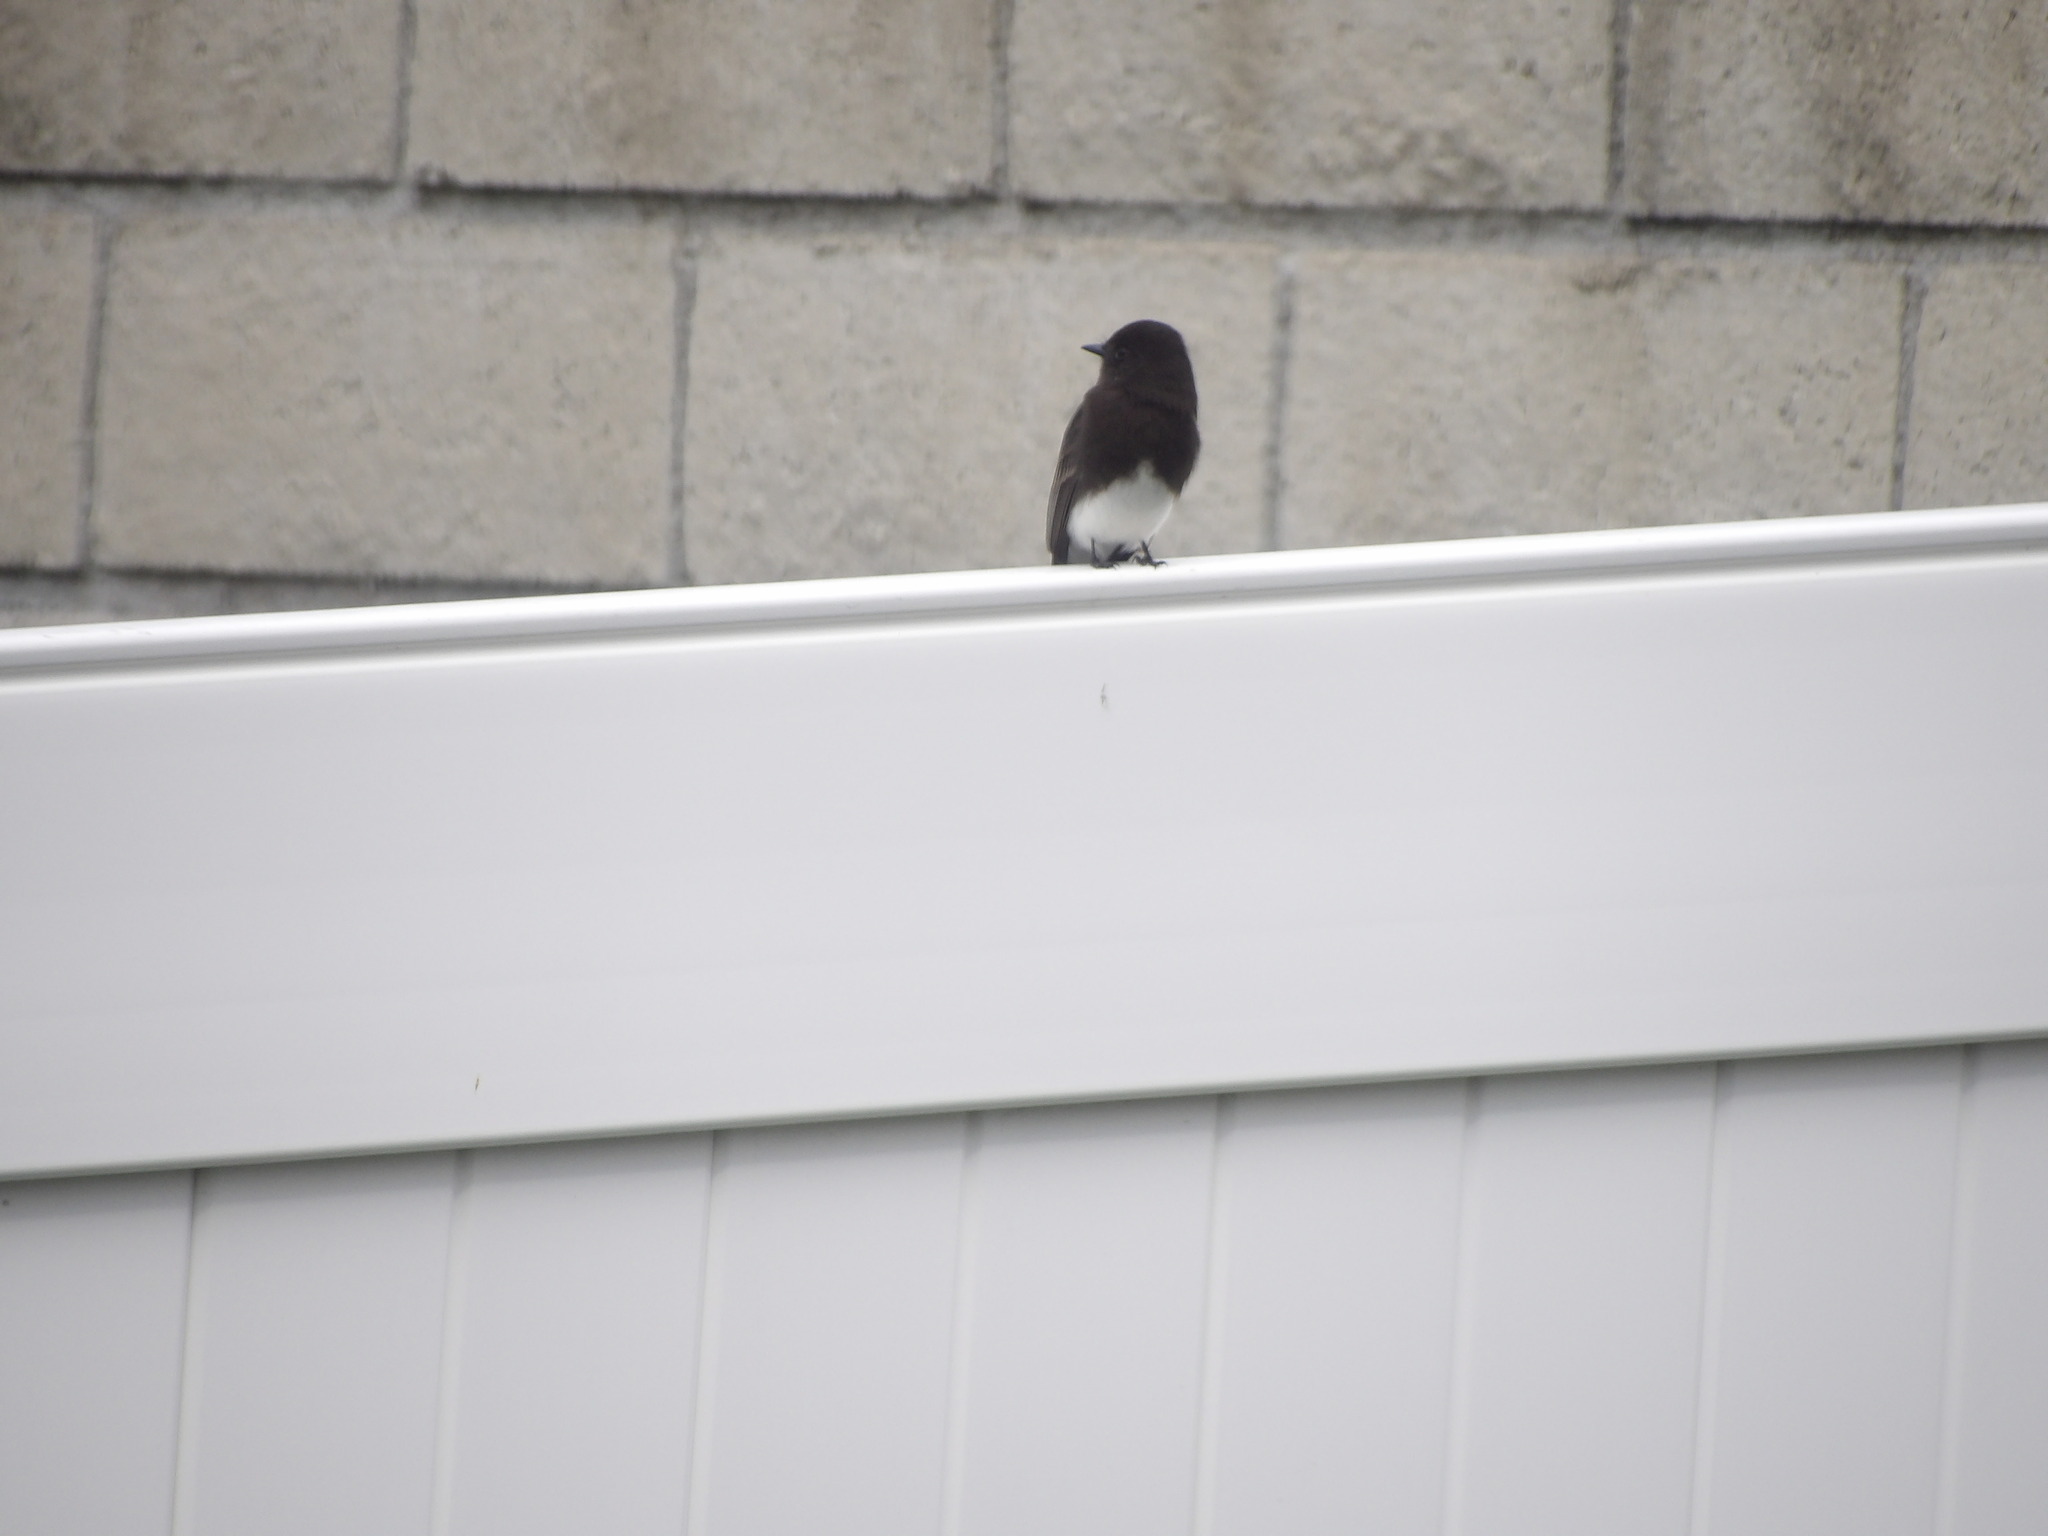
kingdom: Animalia
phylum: Chordata
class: Aves
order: Passeriformes
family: Tyrannidae
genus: Sayornis
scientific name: Sayornis nigricans
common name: Black phoebe
